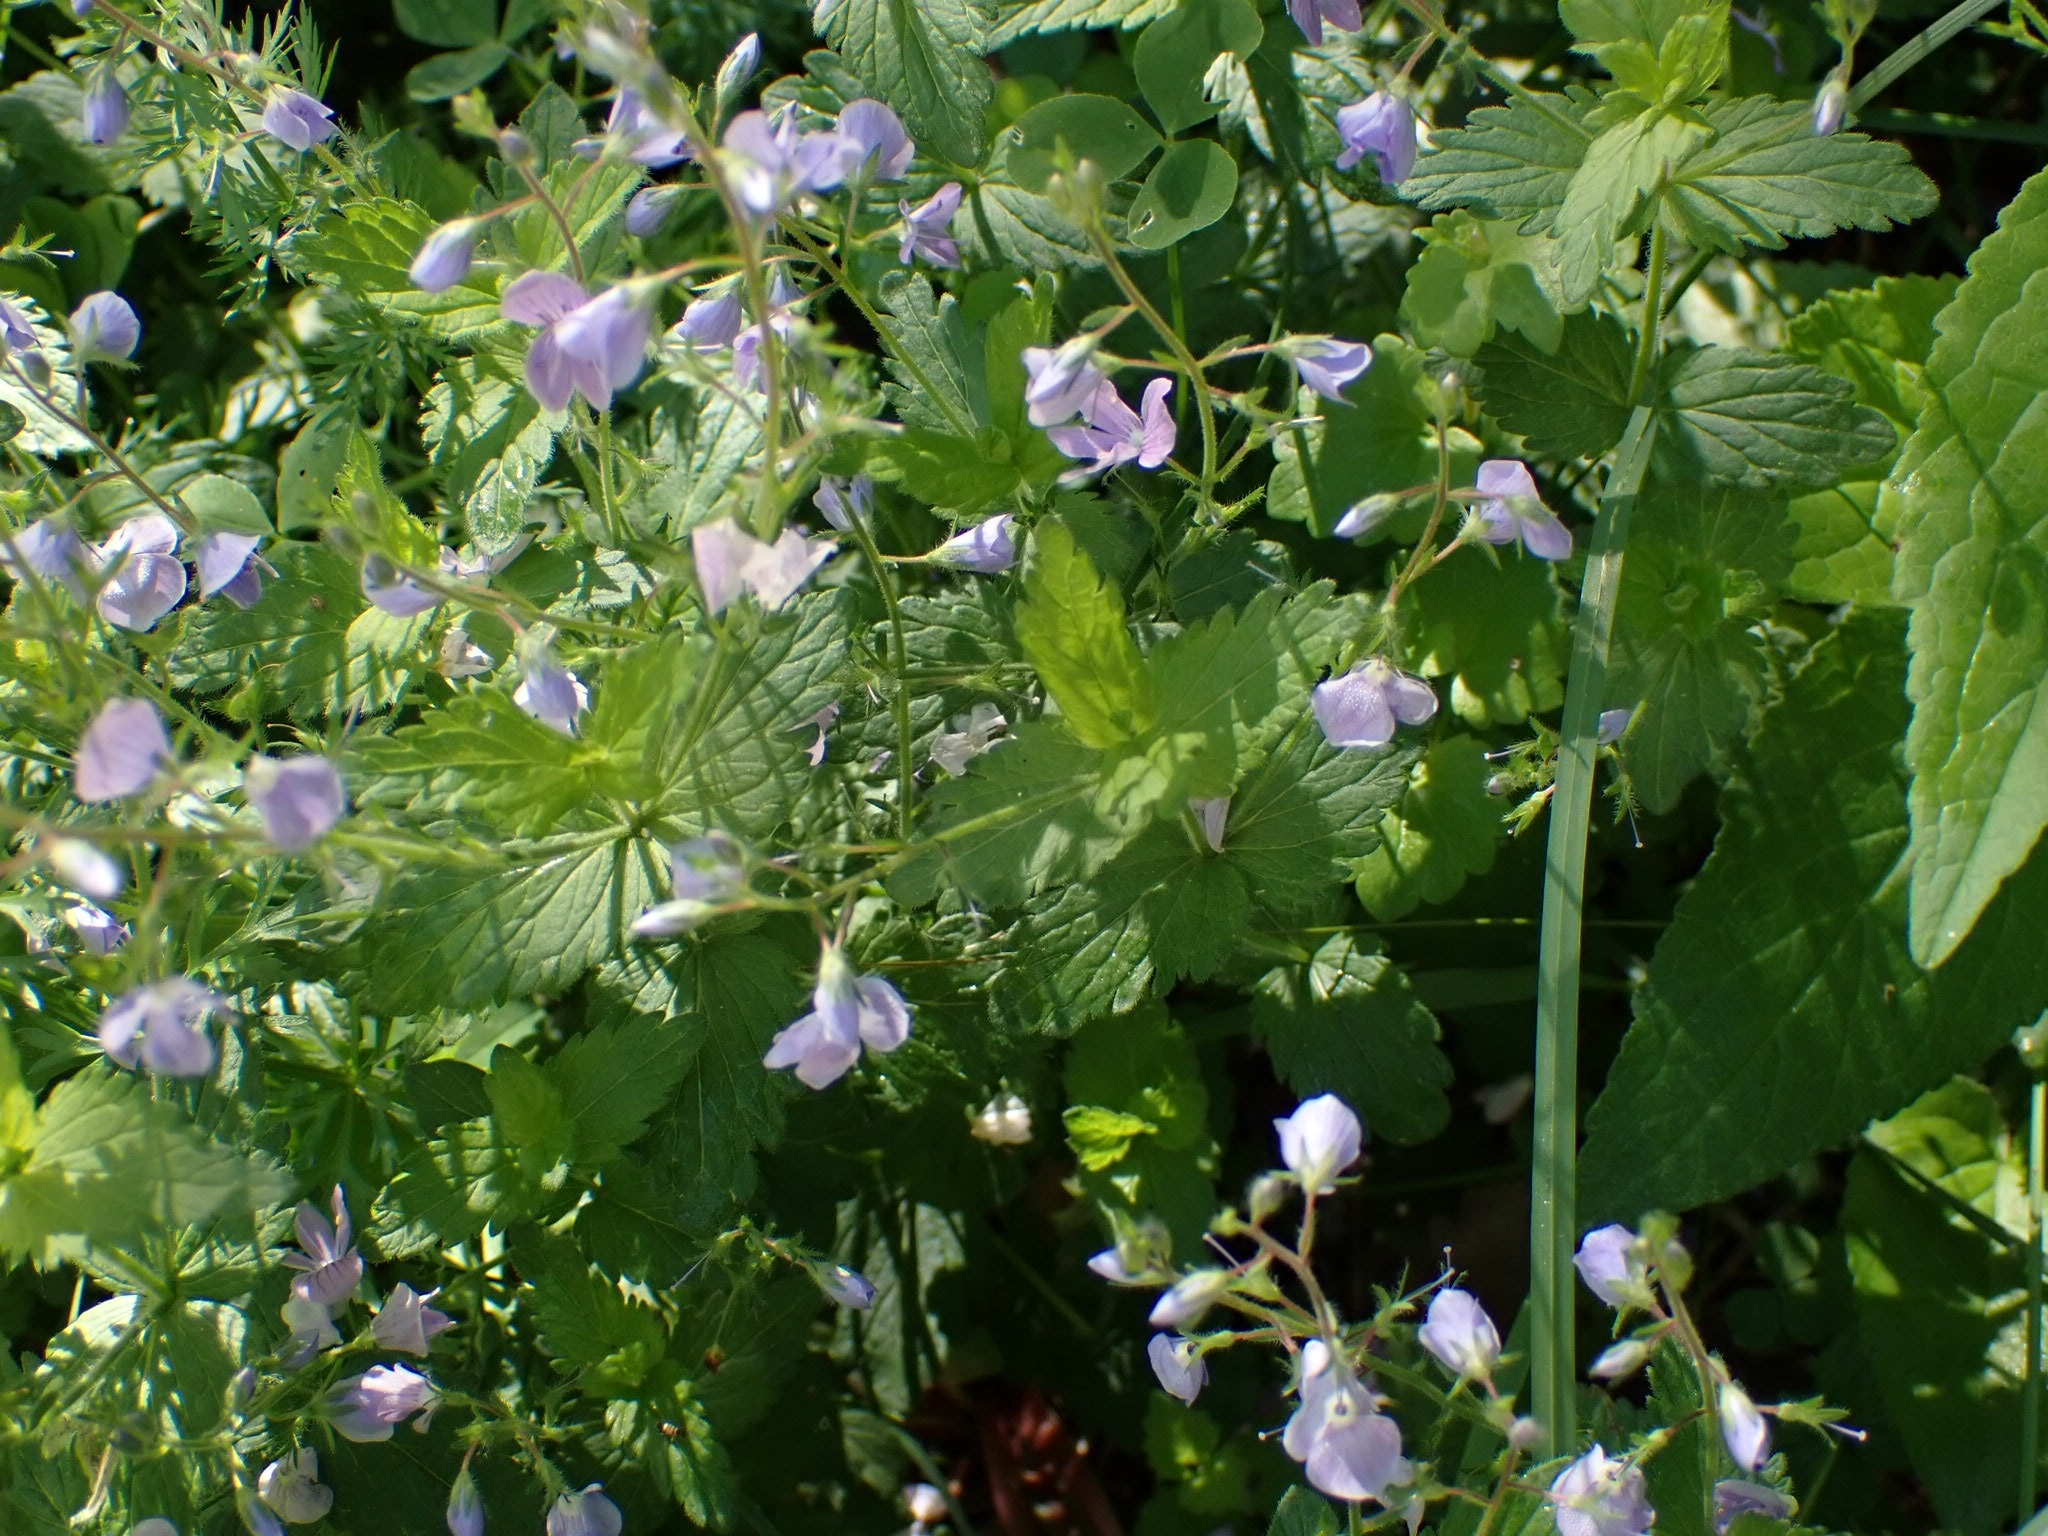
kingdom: Plantae
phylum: Tracheophyta
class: Magnoliopsida
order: Lamiales
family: Plantaginaceae
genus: Veronica
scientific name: Veronica chamaedrys
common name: Germander speedwell
